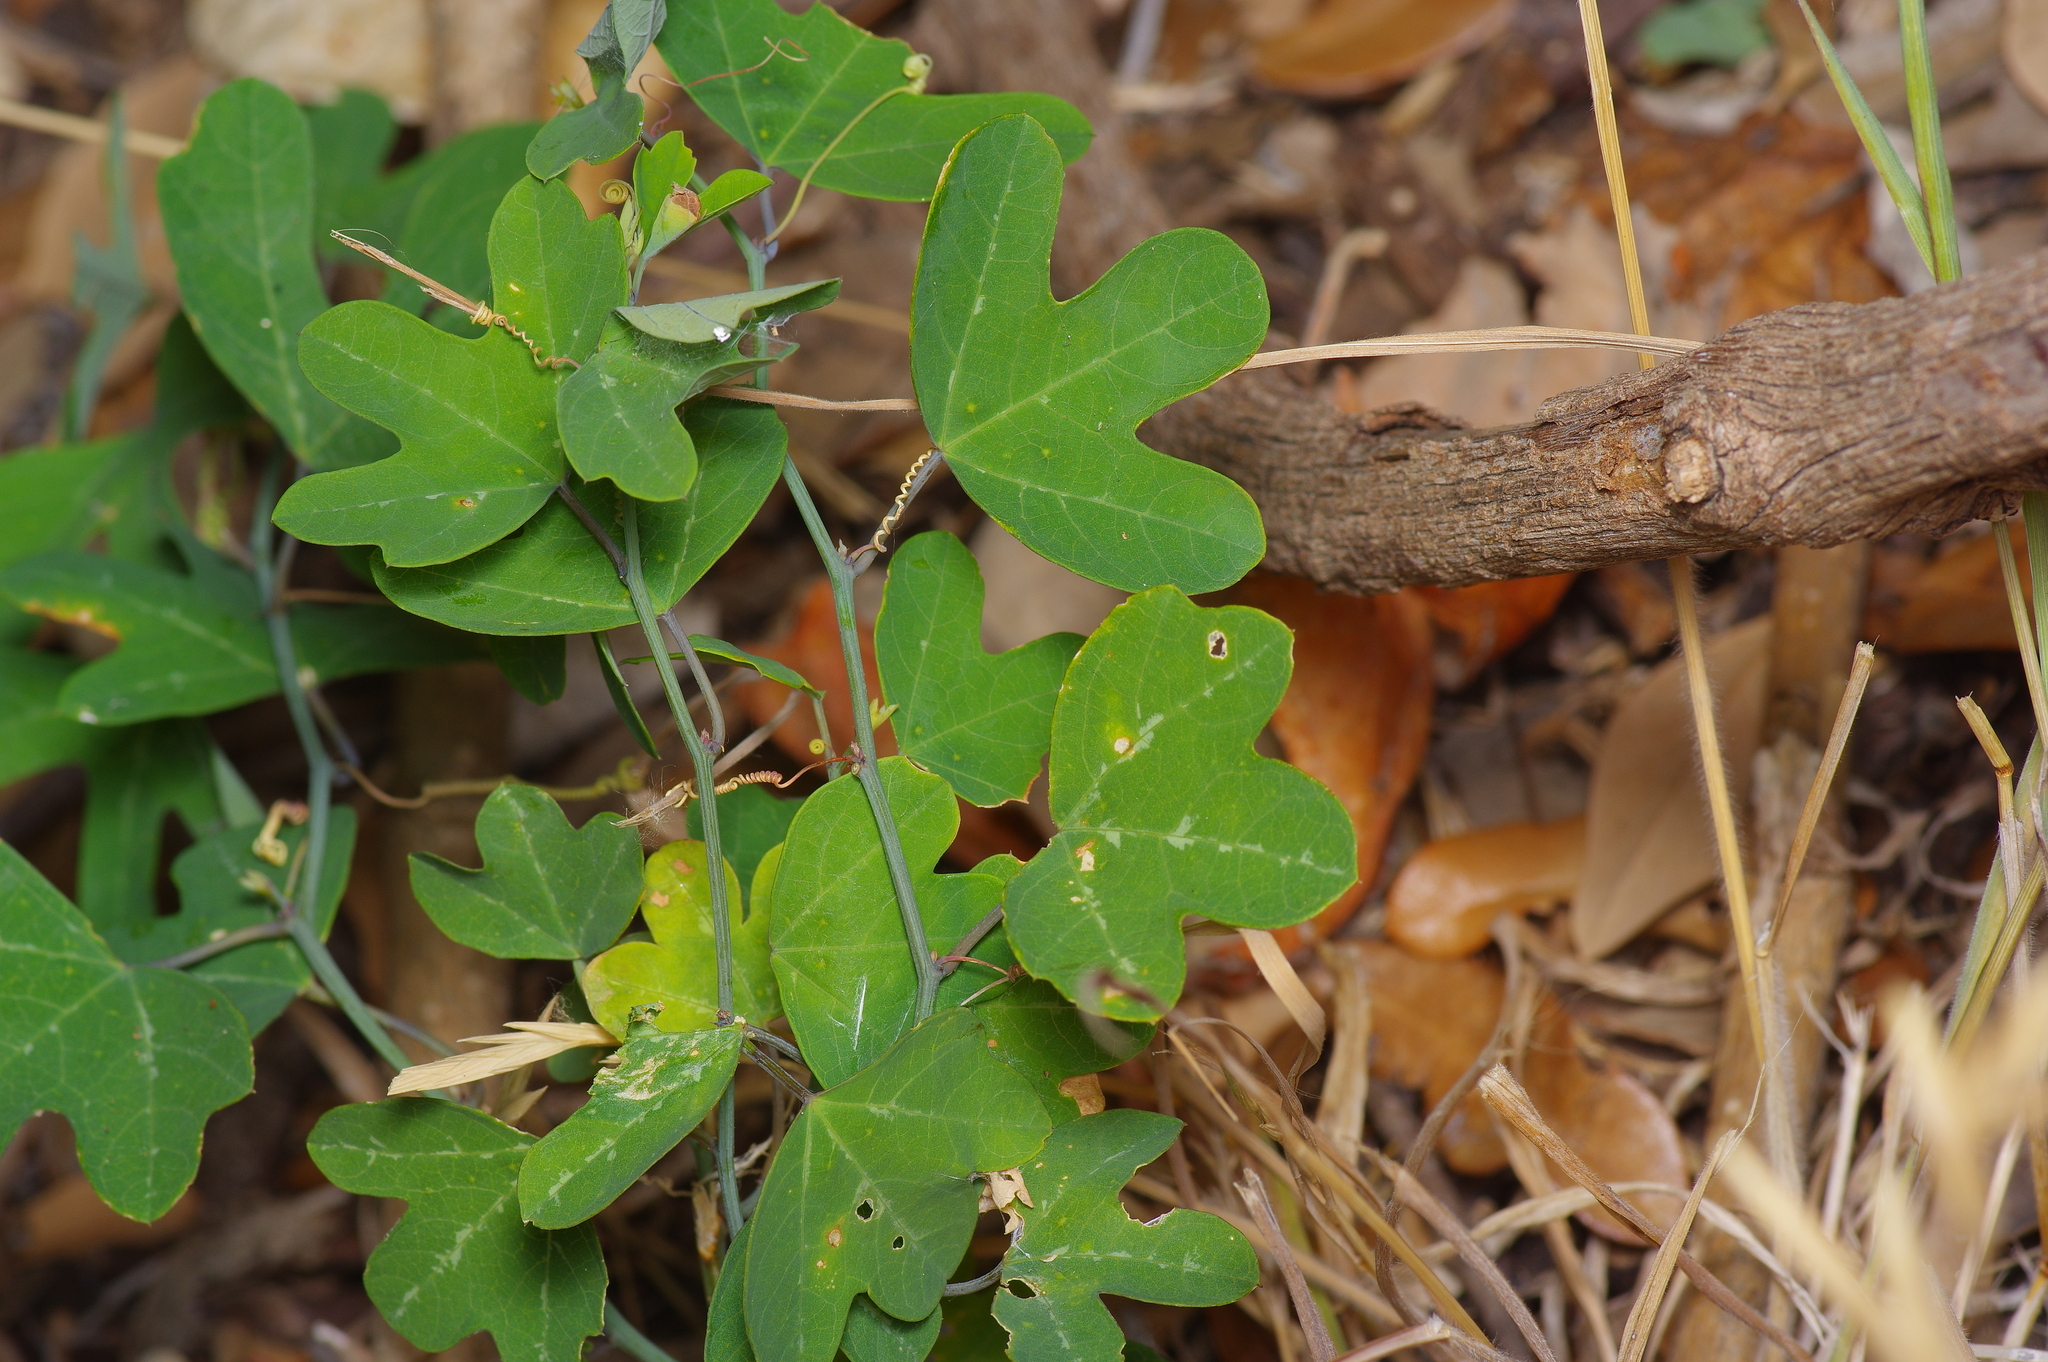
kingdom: Plantae
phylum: Tracheophyta
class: Magnoliopsida
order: Malpighiales
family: Passifloraceae
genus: Passiflora
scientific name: Passiflora affinis
